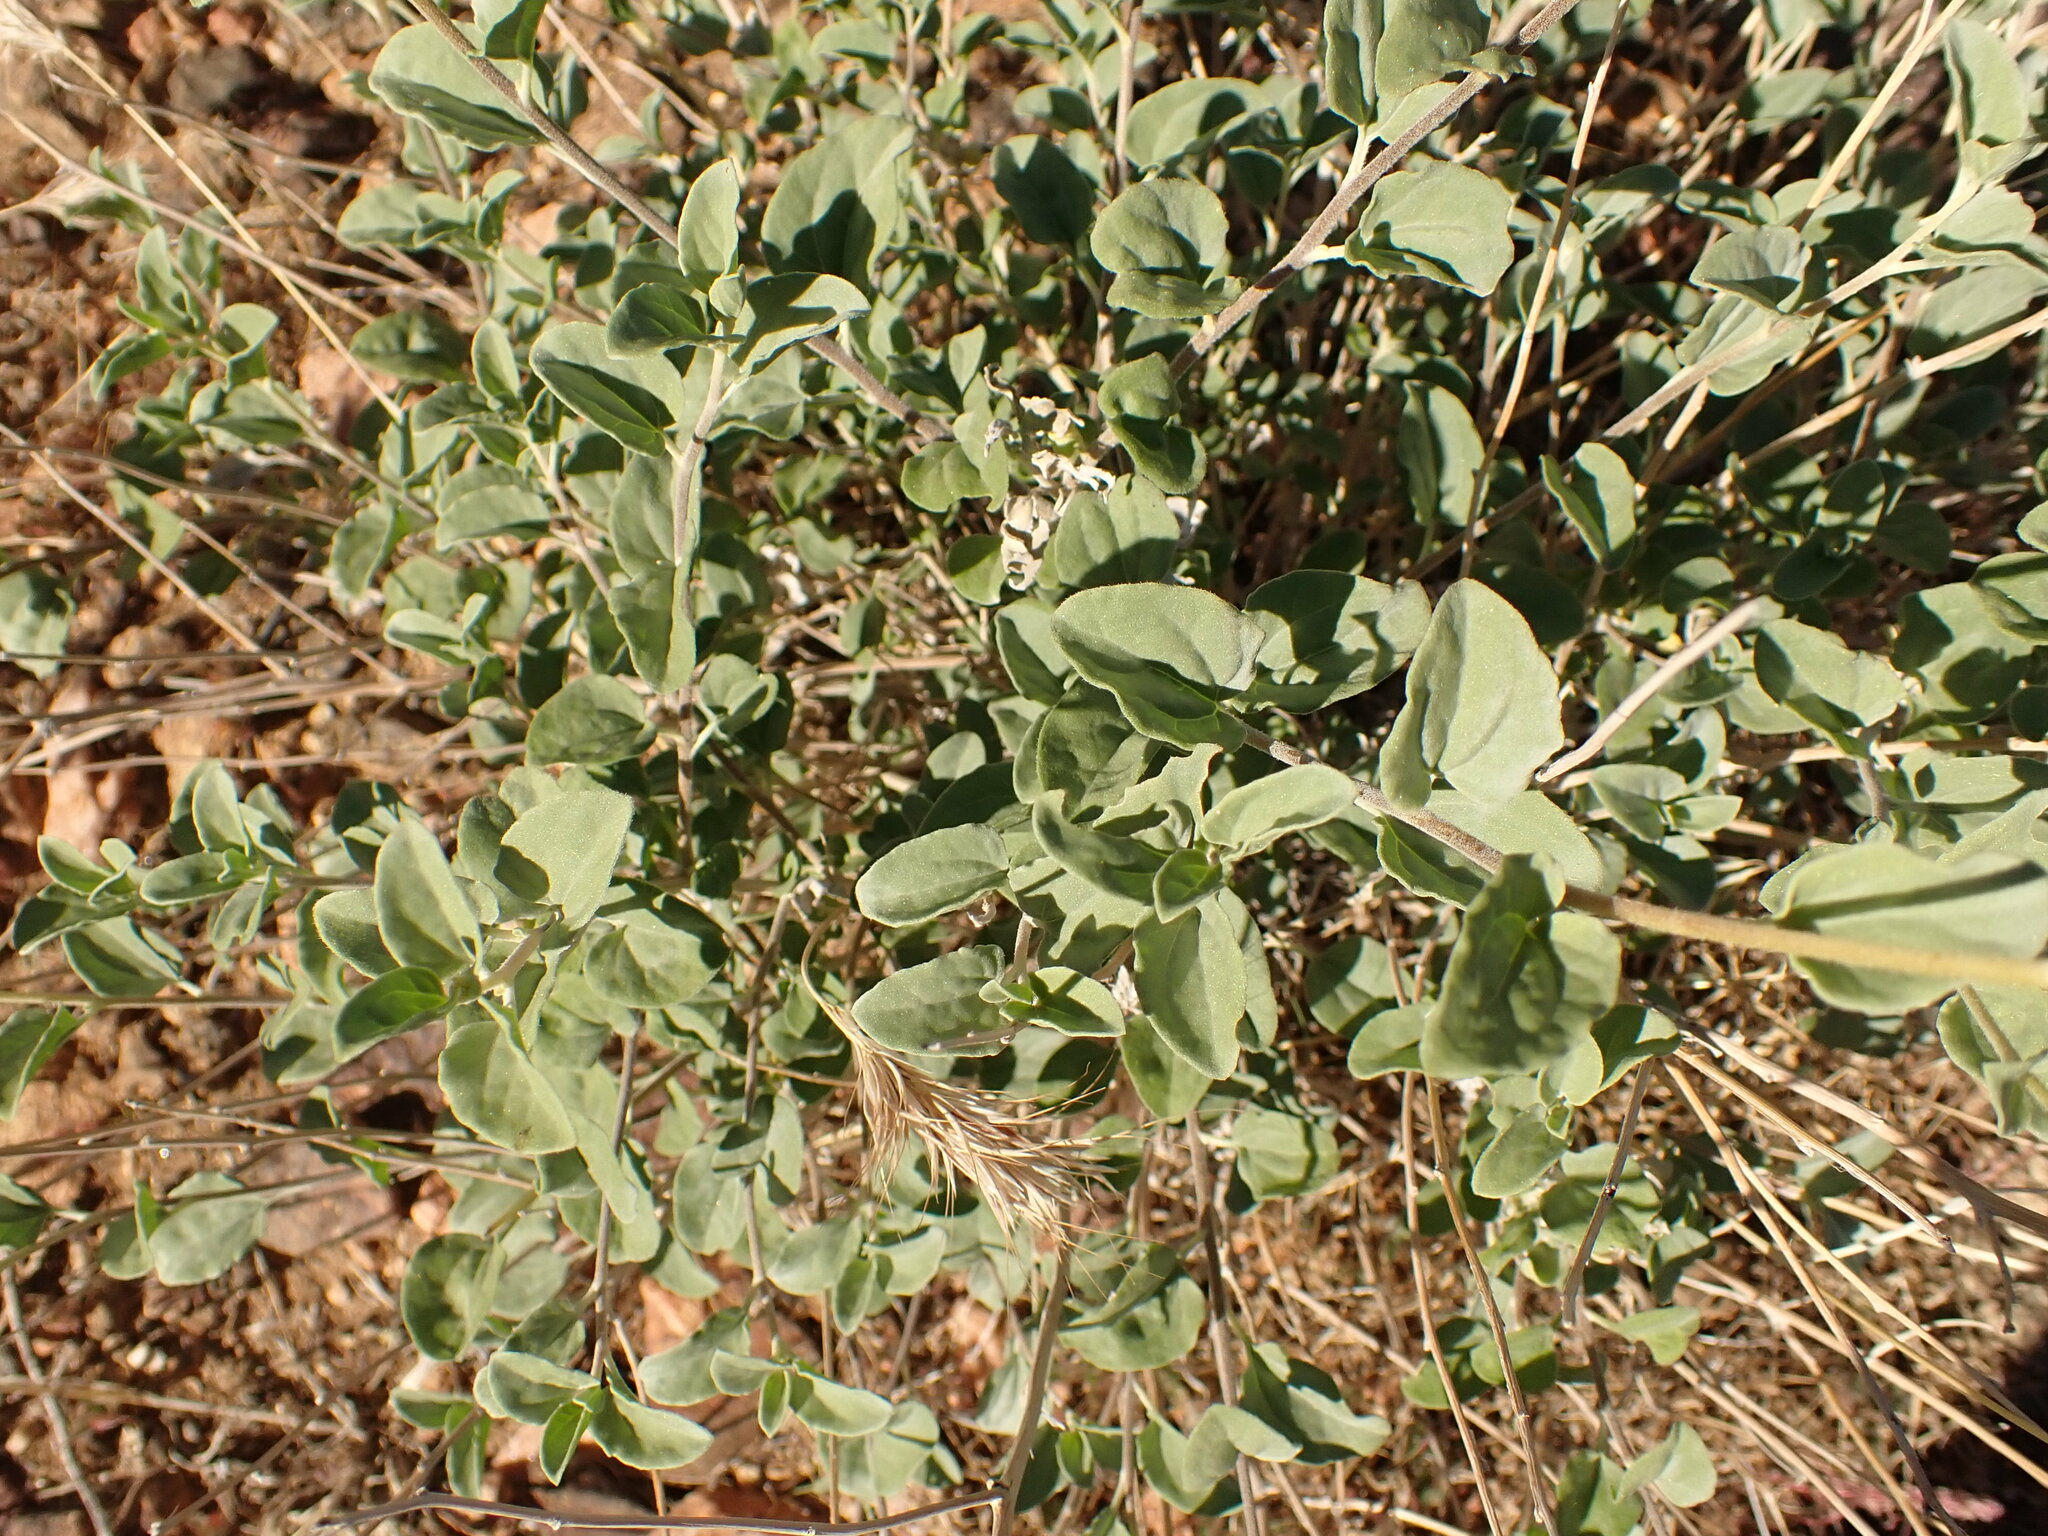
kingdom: Plantae
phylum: Tracheophyta
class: Magnoliopsida
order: Asterales
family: Asteraceae
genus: Encelia
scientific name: Encelia actoni
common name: Acton encelia
